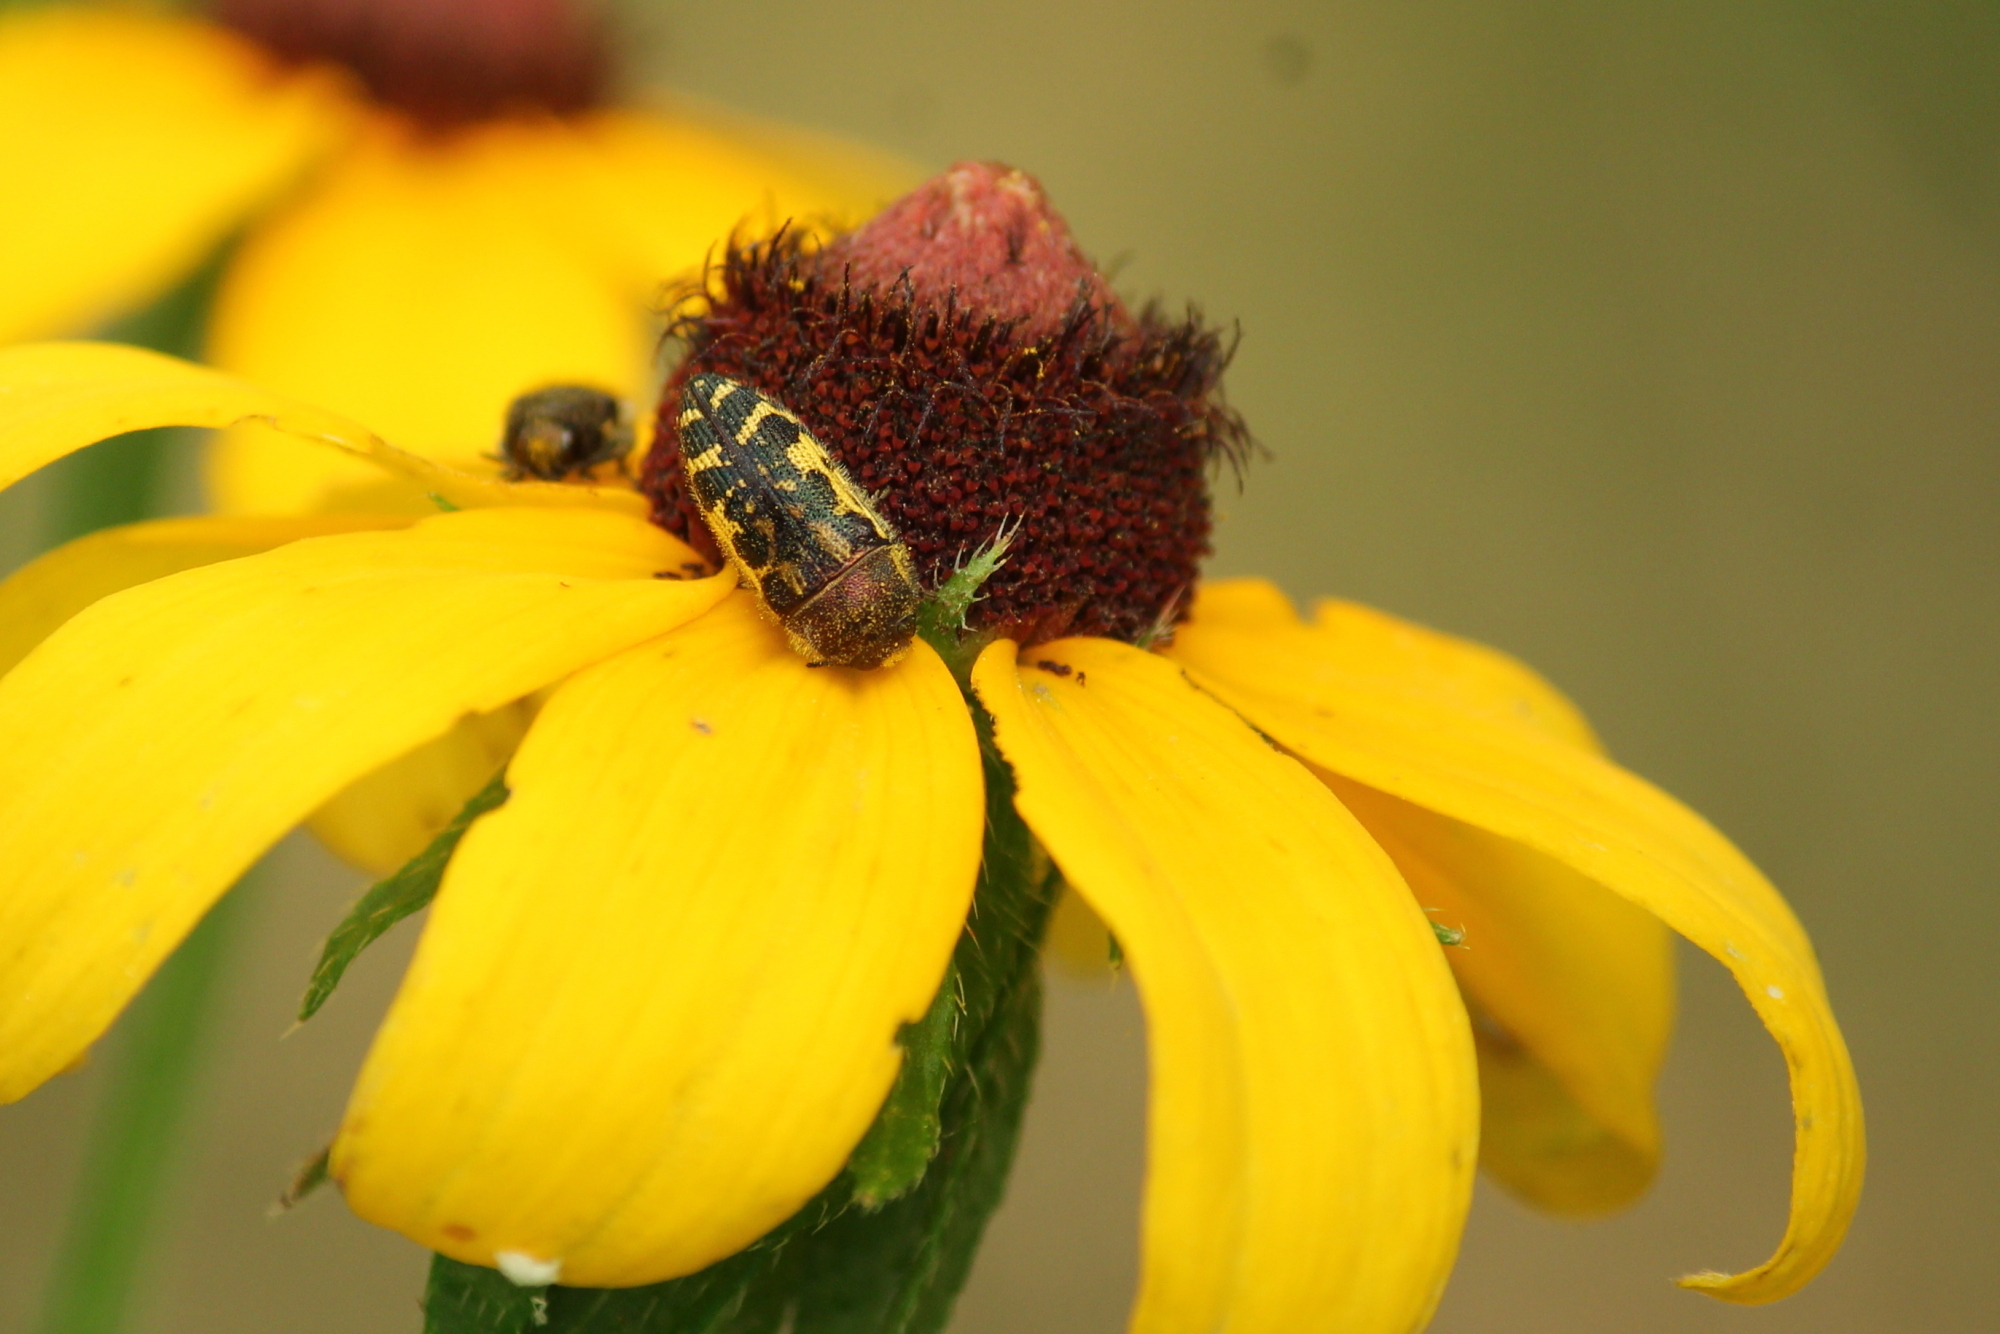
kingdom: Animalia
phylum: Arthropoda
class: Insecta
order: Coleoptera
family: Buprestidae
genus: Acmaeodera
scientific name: Acmaeodera pulchella
